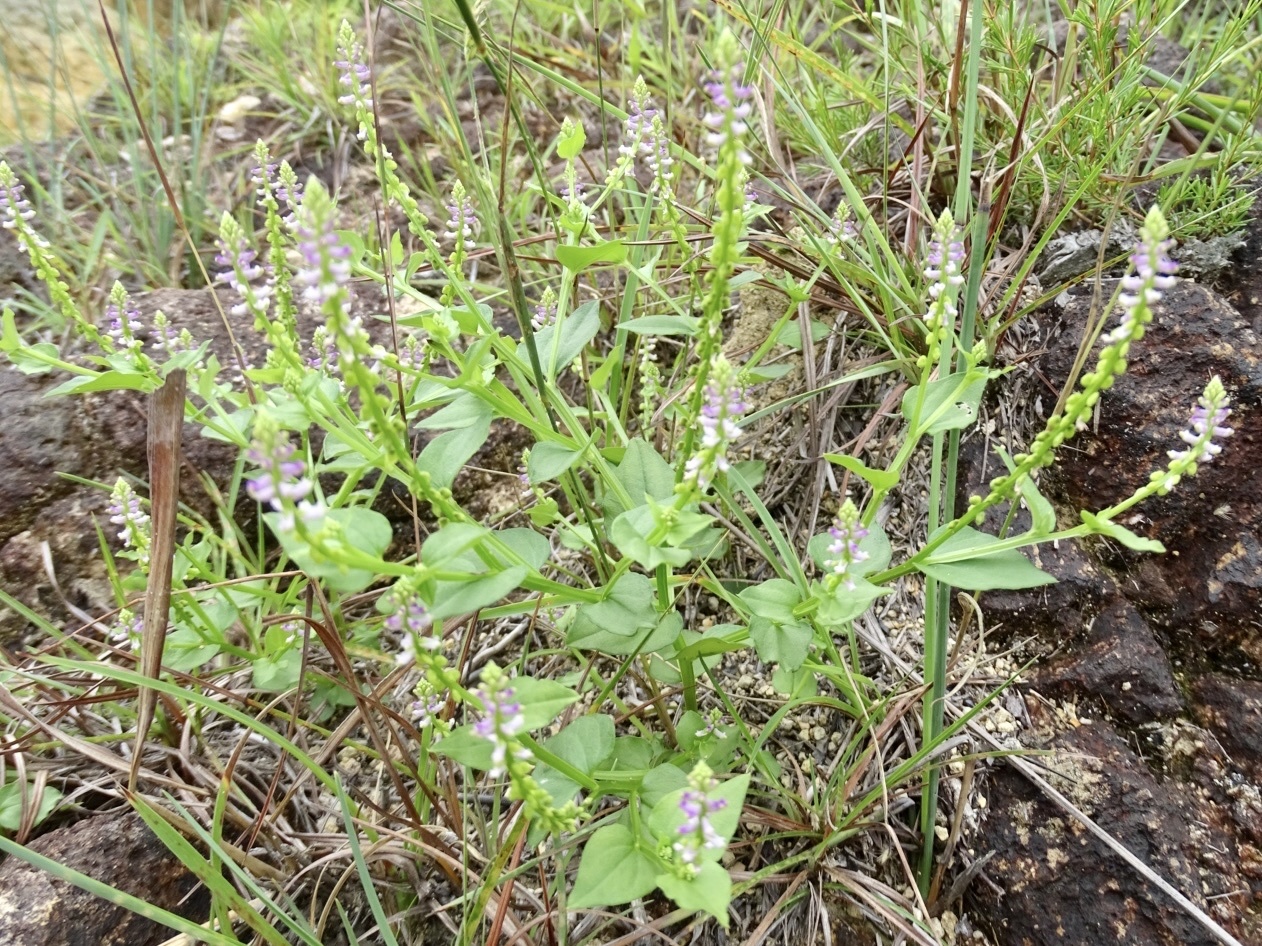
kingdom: Plantae
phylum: Tracheophyta
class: Magnoliopsida
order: Fabales
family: Polygalaceae
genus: Salomonia
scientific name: Salomonia cantoniensis
